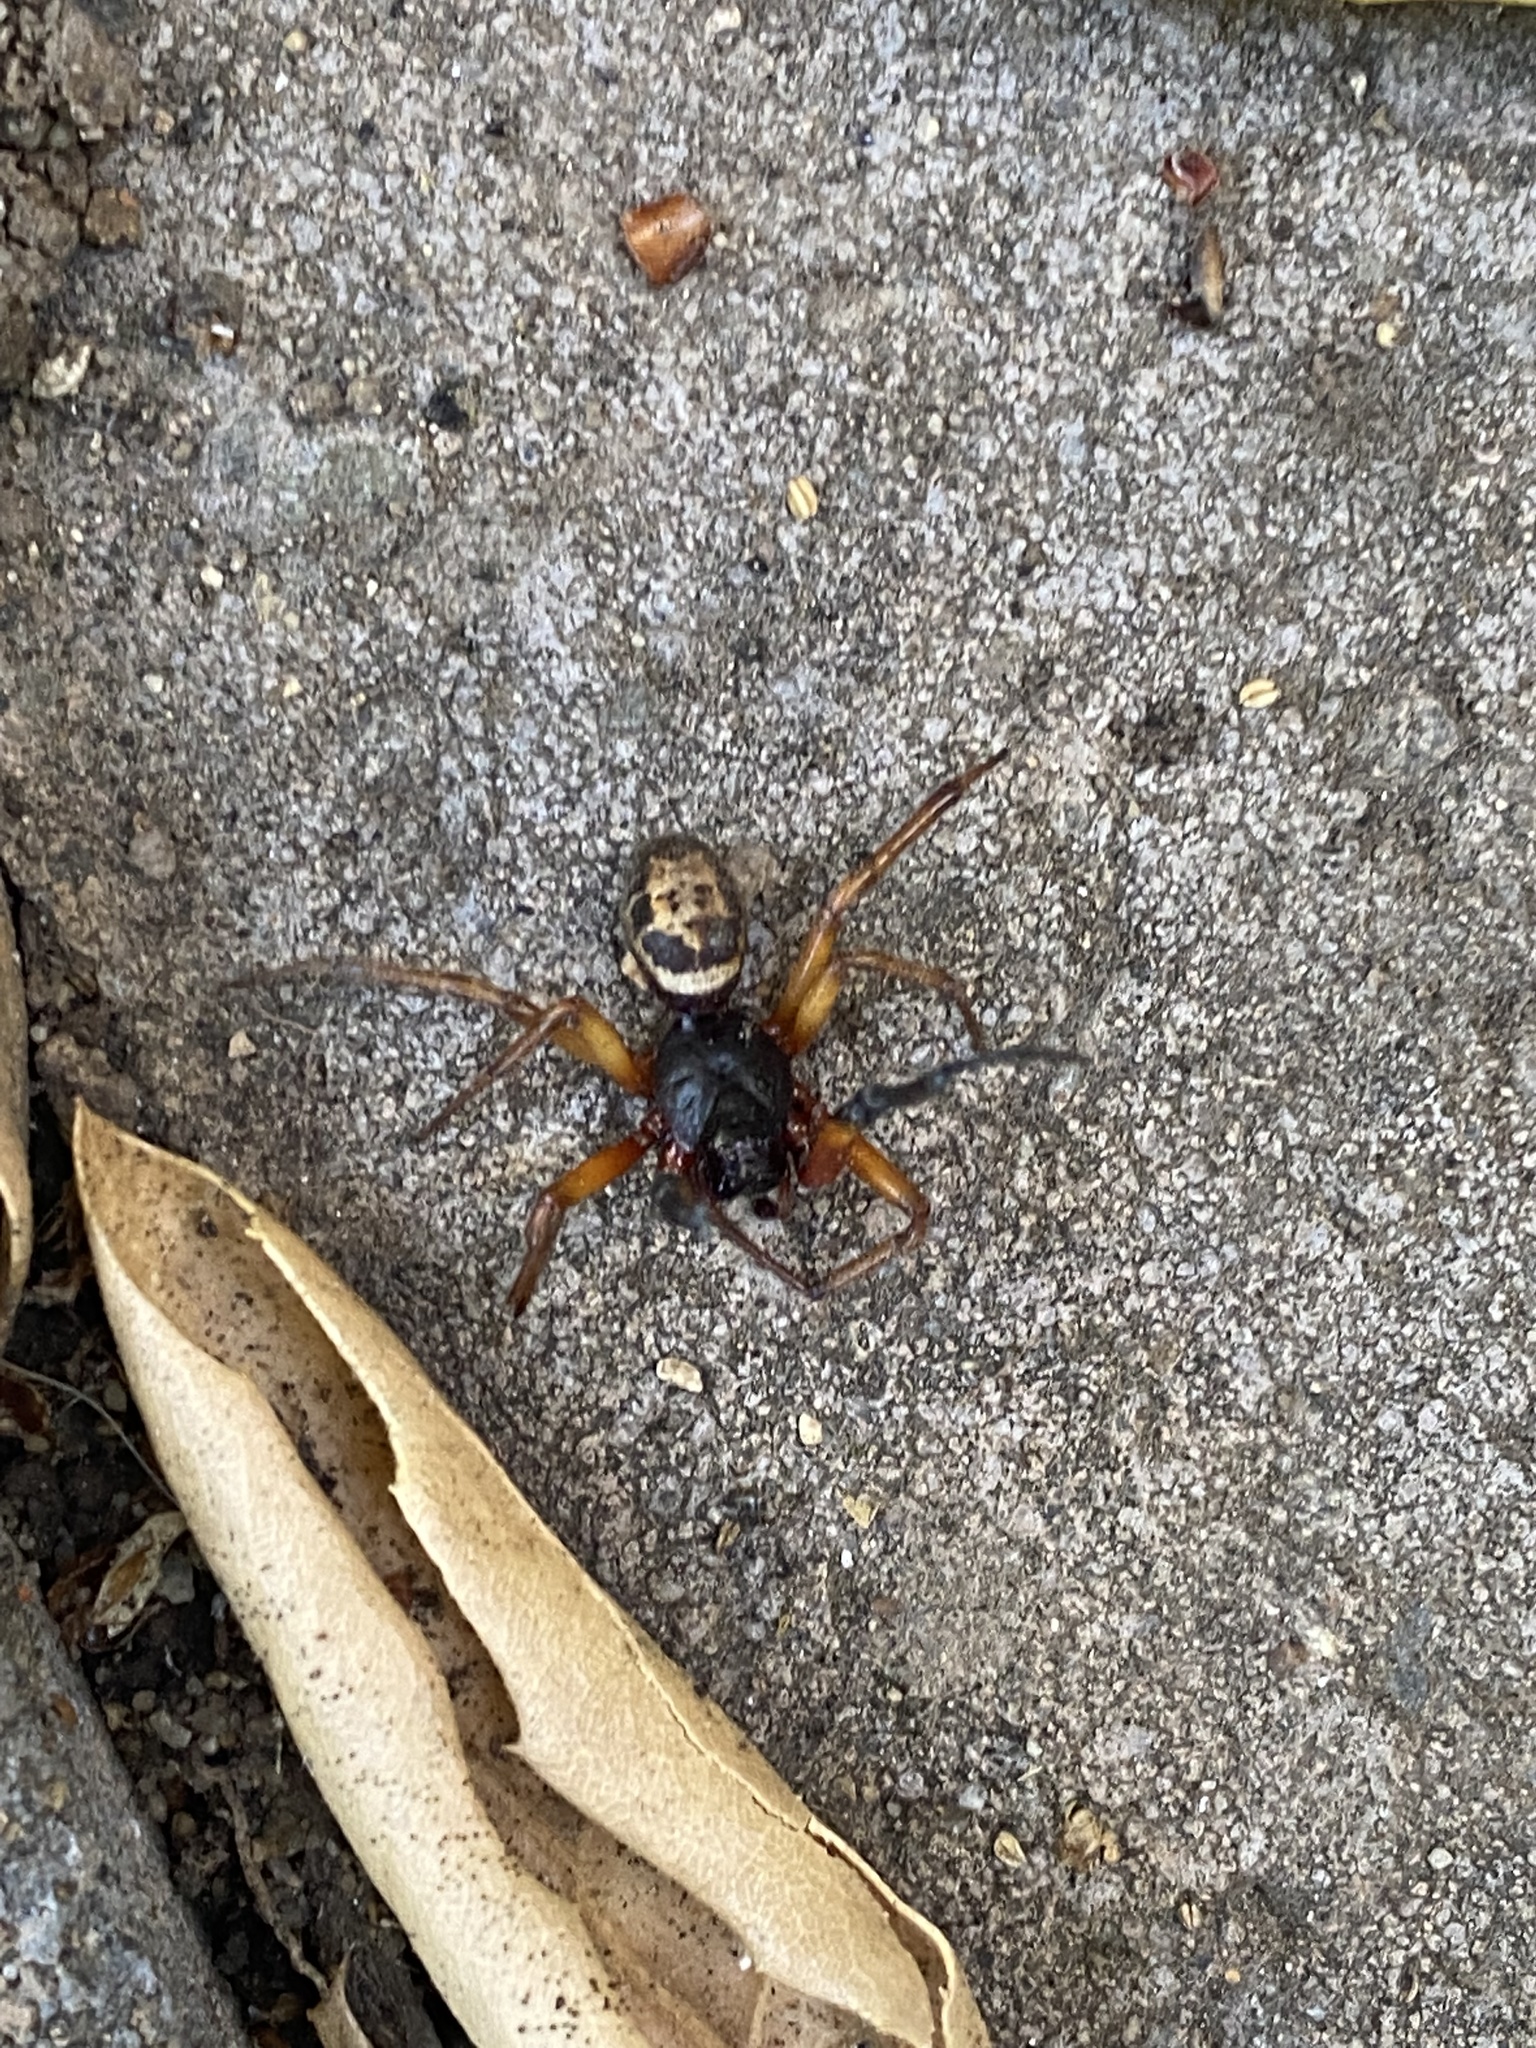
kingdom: Animalia
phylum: Arthropoda
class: Arachnida
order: Araneae
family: Theridiidae
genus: Steatoda
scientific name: Steatoda nobilis
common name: Cobweb weaver
